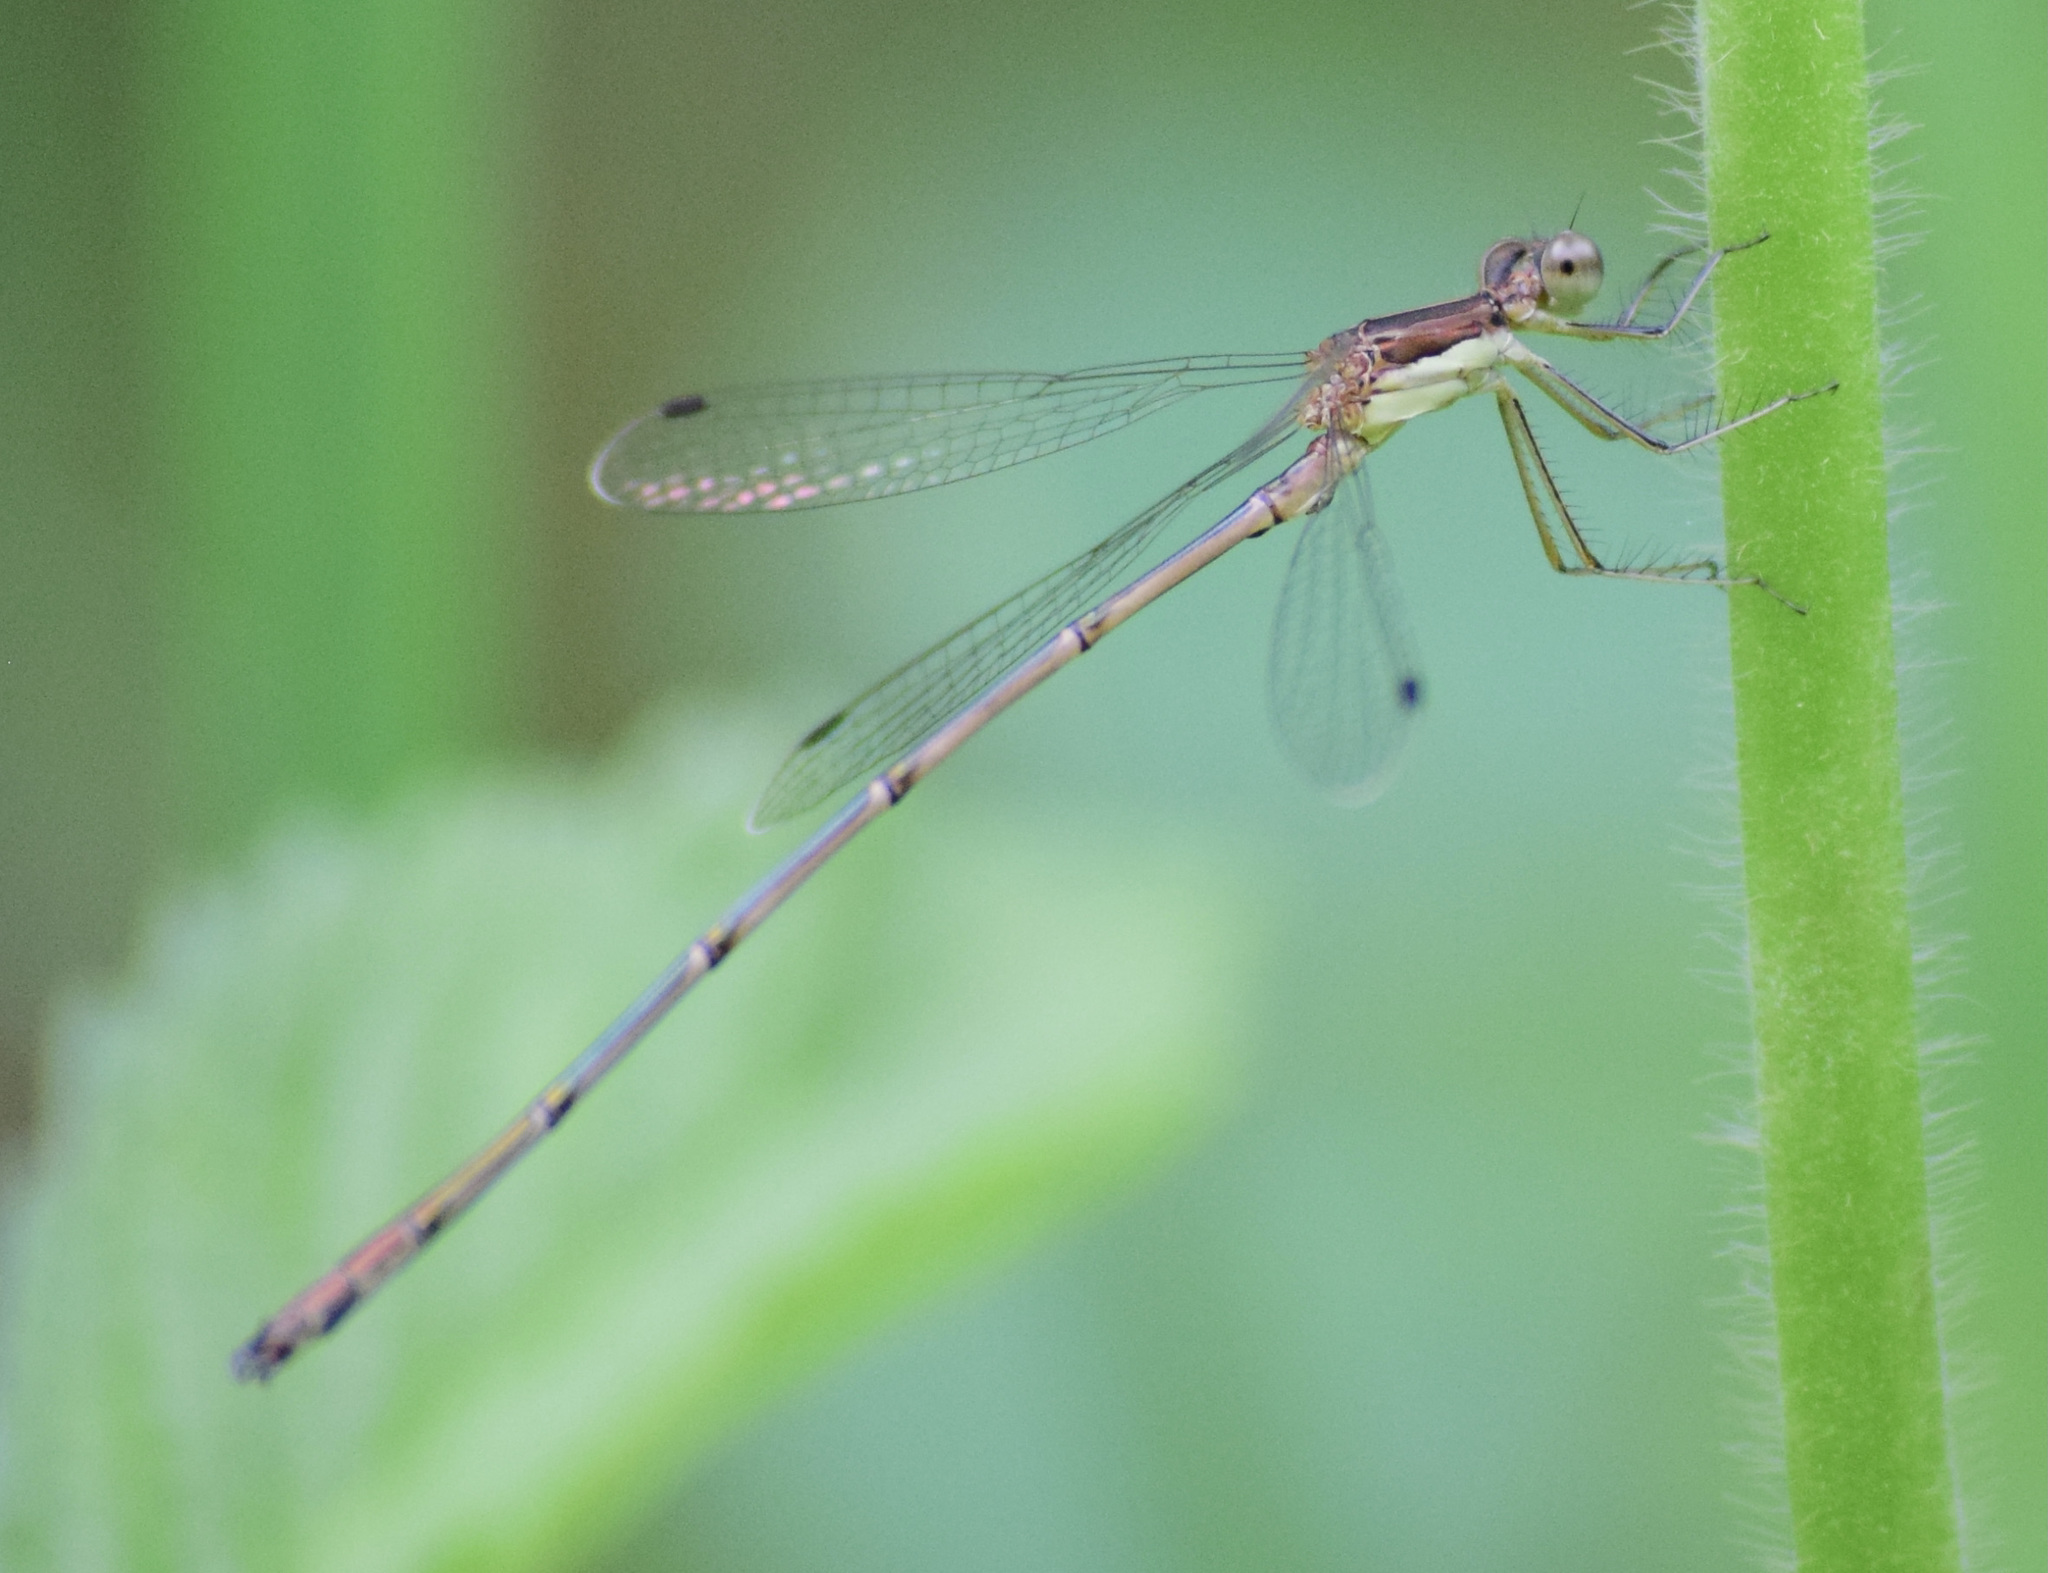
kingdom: Animalia
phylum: Arthropoda
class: Insecta
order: Odonata
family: Lestidae
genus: Lestes
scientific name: Lestes rectangularis
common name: Slender spreadwing
